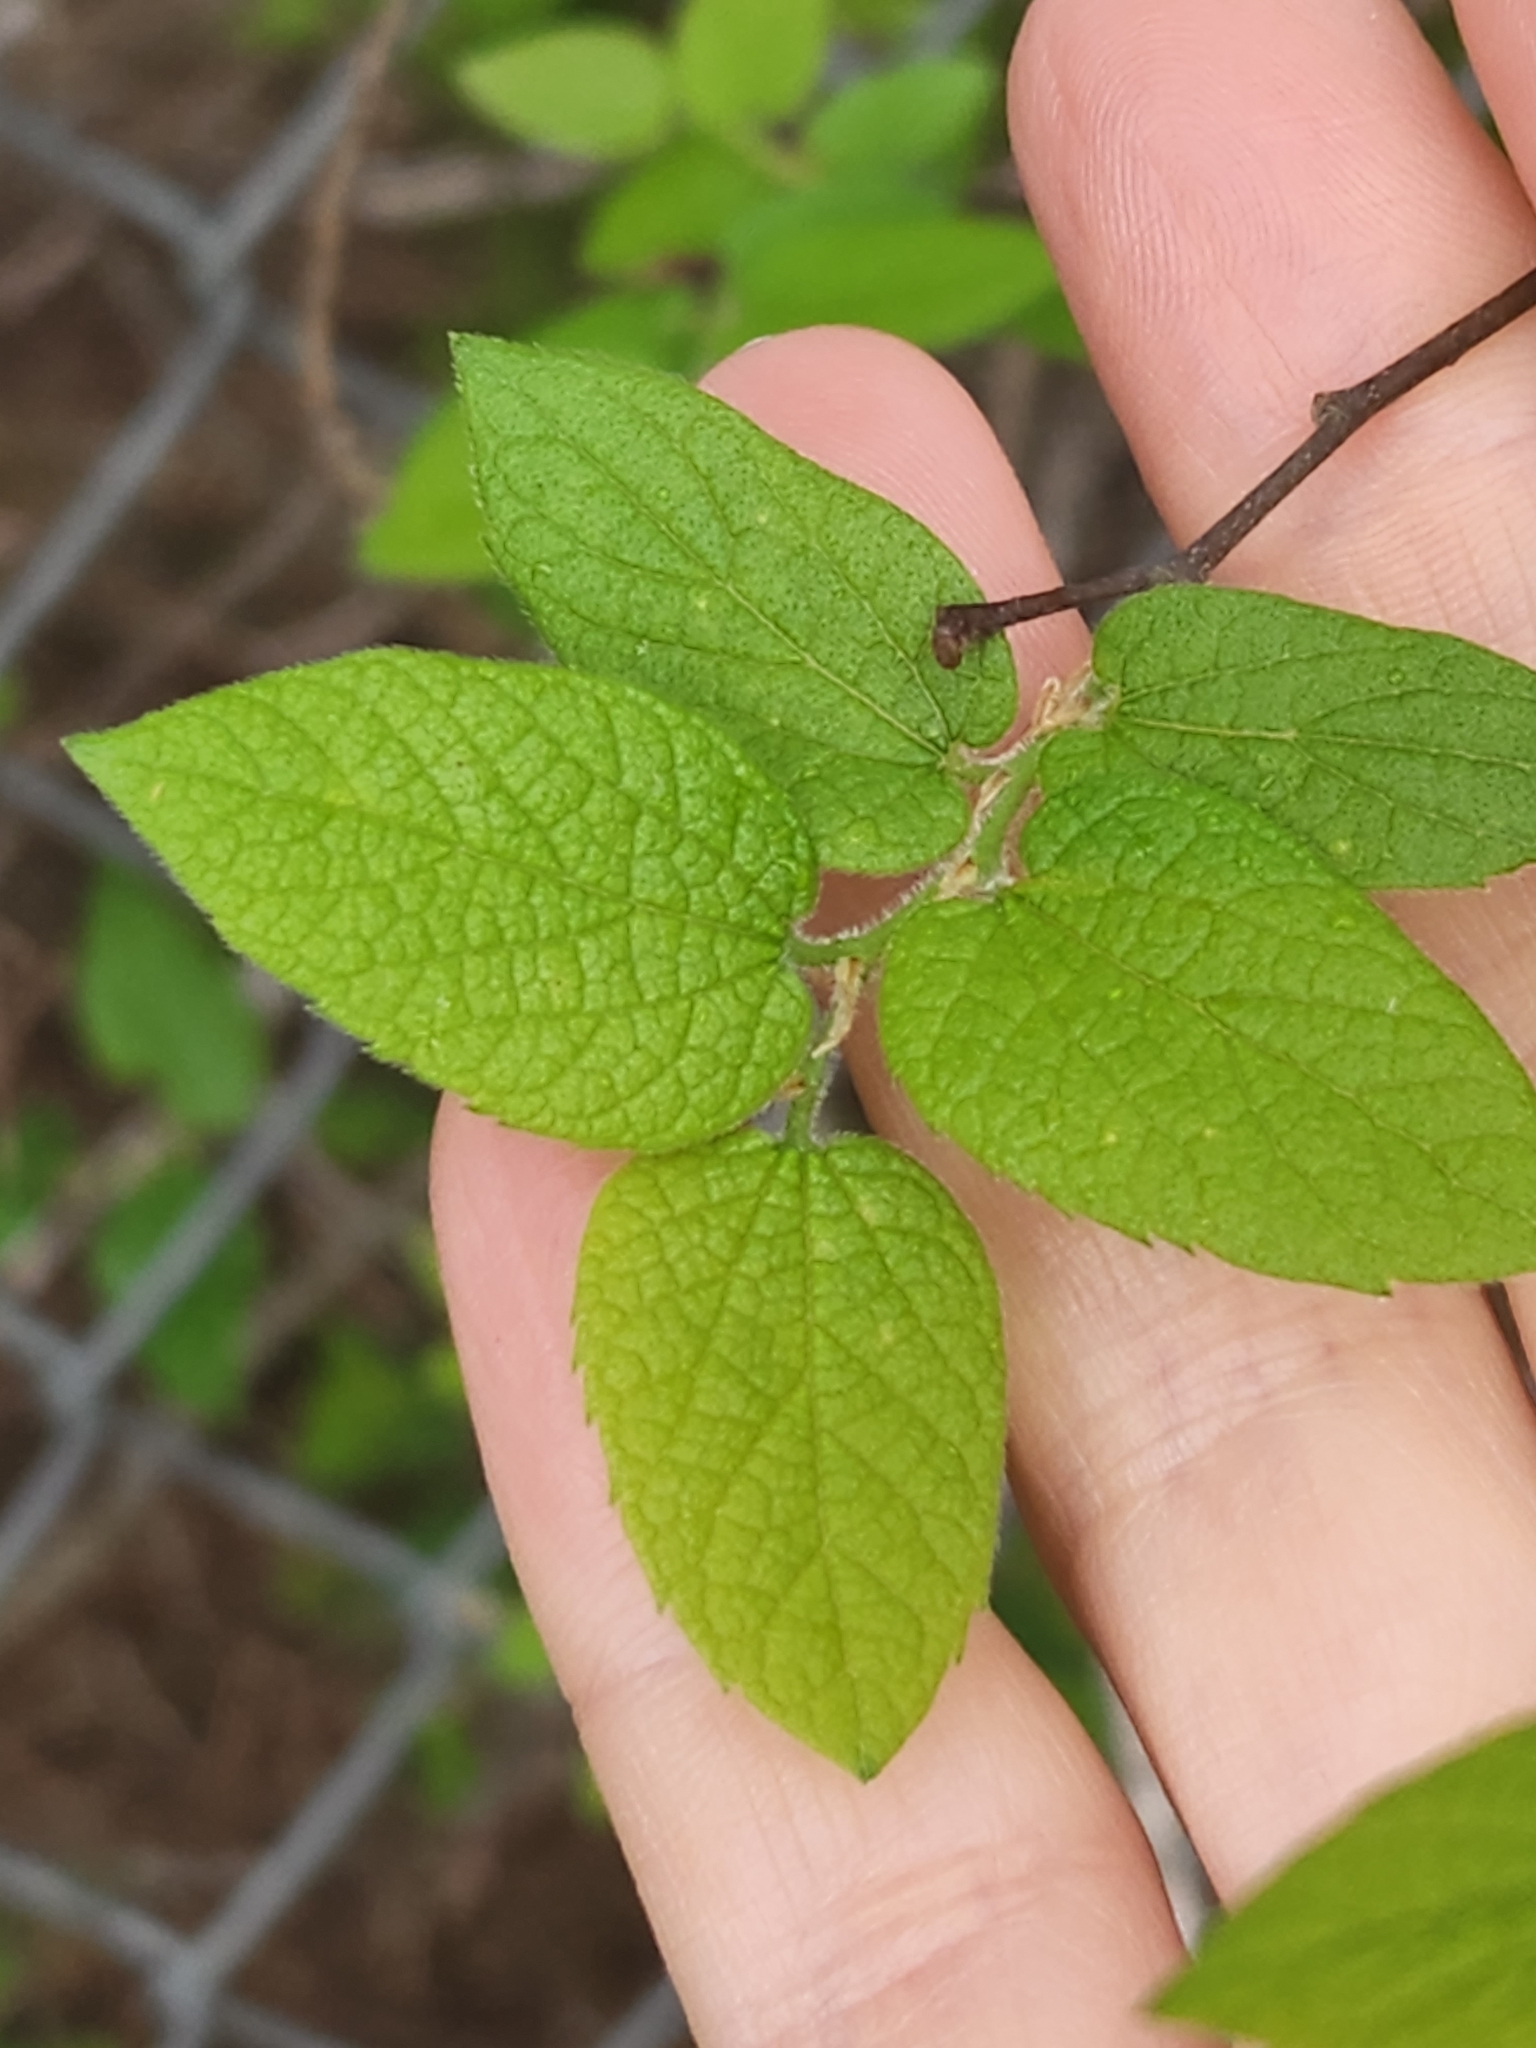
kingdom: Plantae
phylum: Tracheophyta
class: Magnoliopsida
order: Rosales
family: Cannabaceae
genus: Celtis
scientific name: Celtis reticulata
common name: Netleaf hackberry
